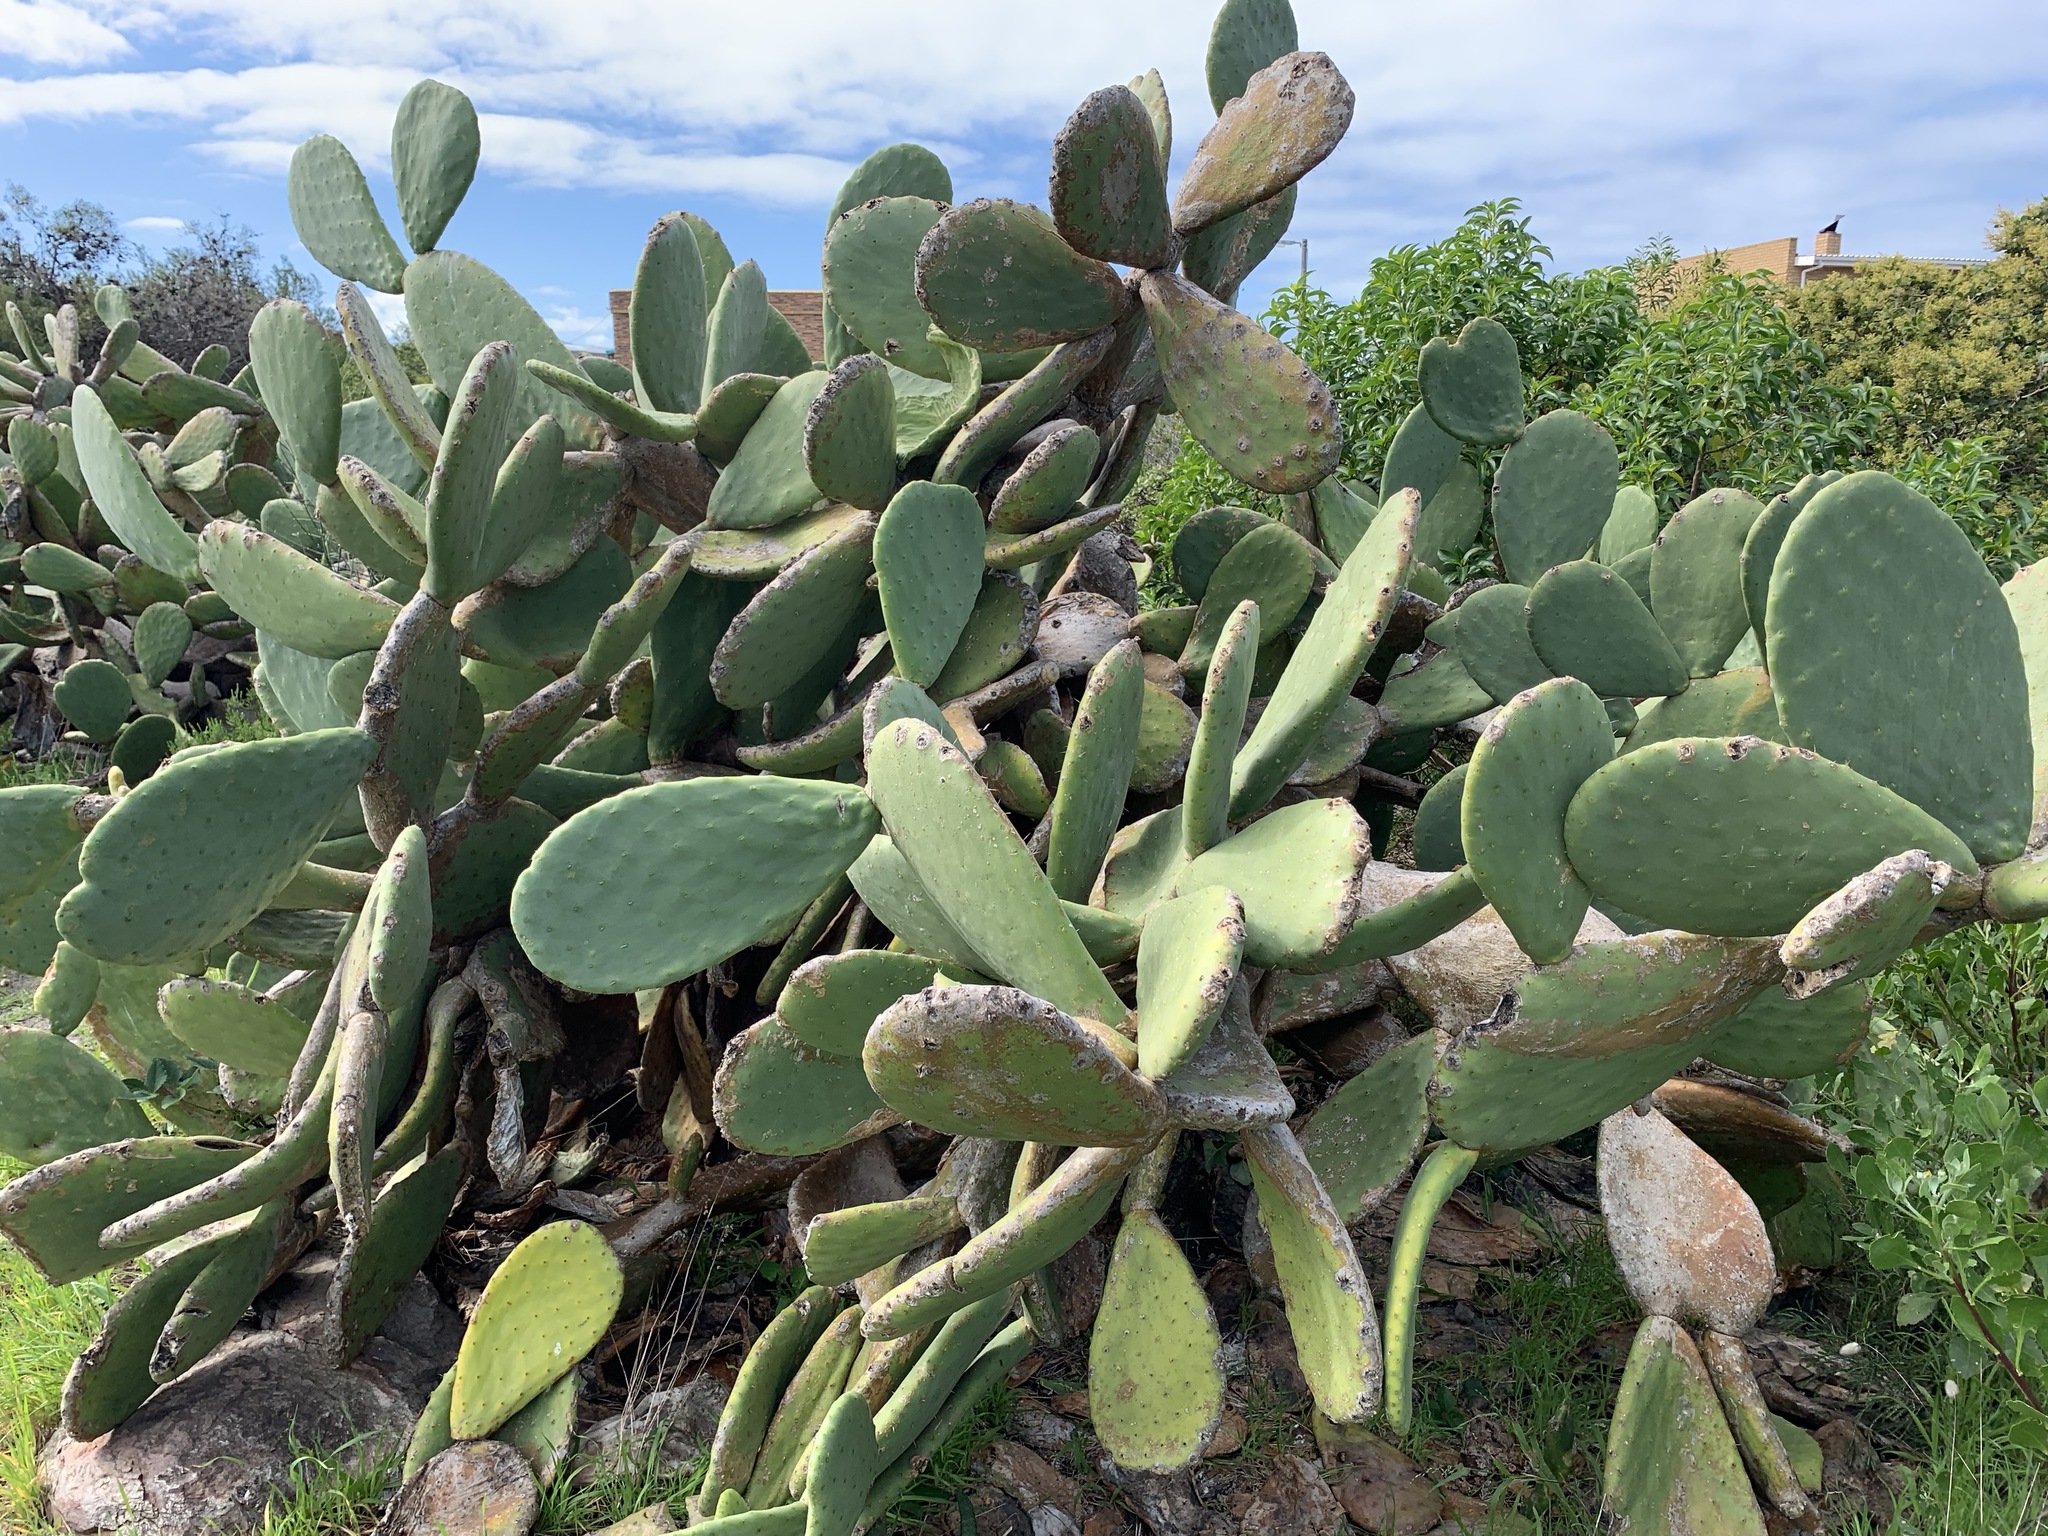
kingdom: Plantae
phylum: Tracheophyta
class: Magnoliopsida
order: Caryophyllales
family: Cactaceae
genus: Opuntia
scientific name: Opuntia ficus-indica
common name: Barbary fig
